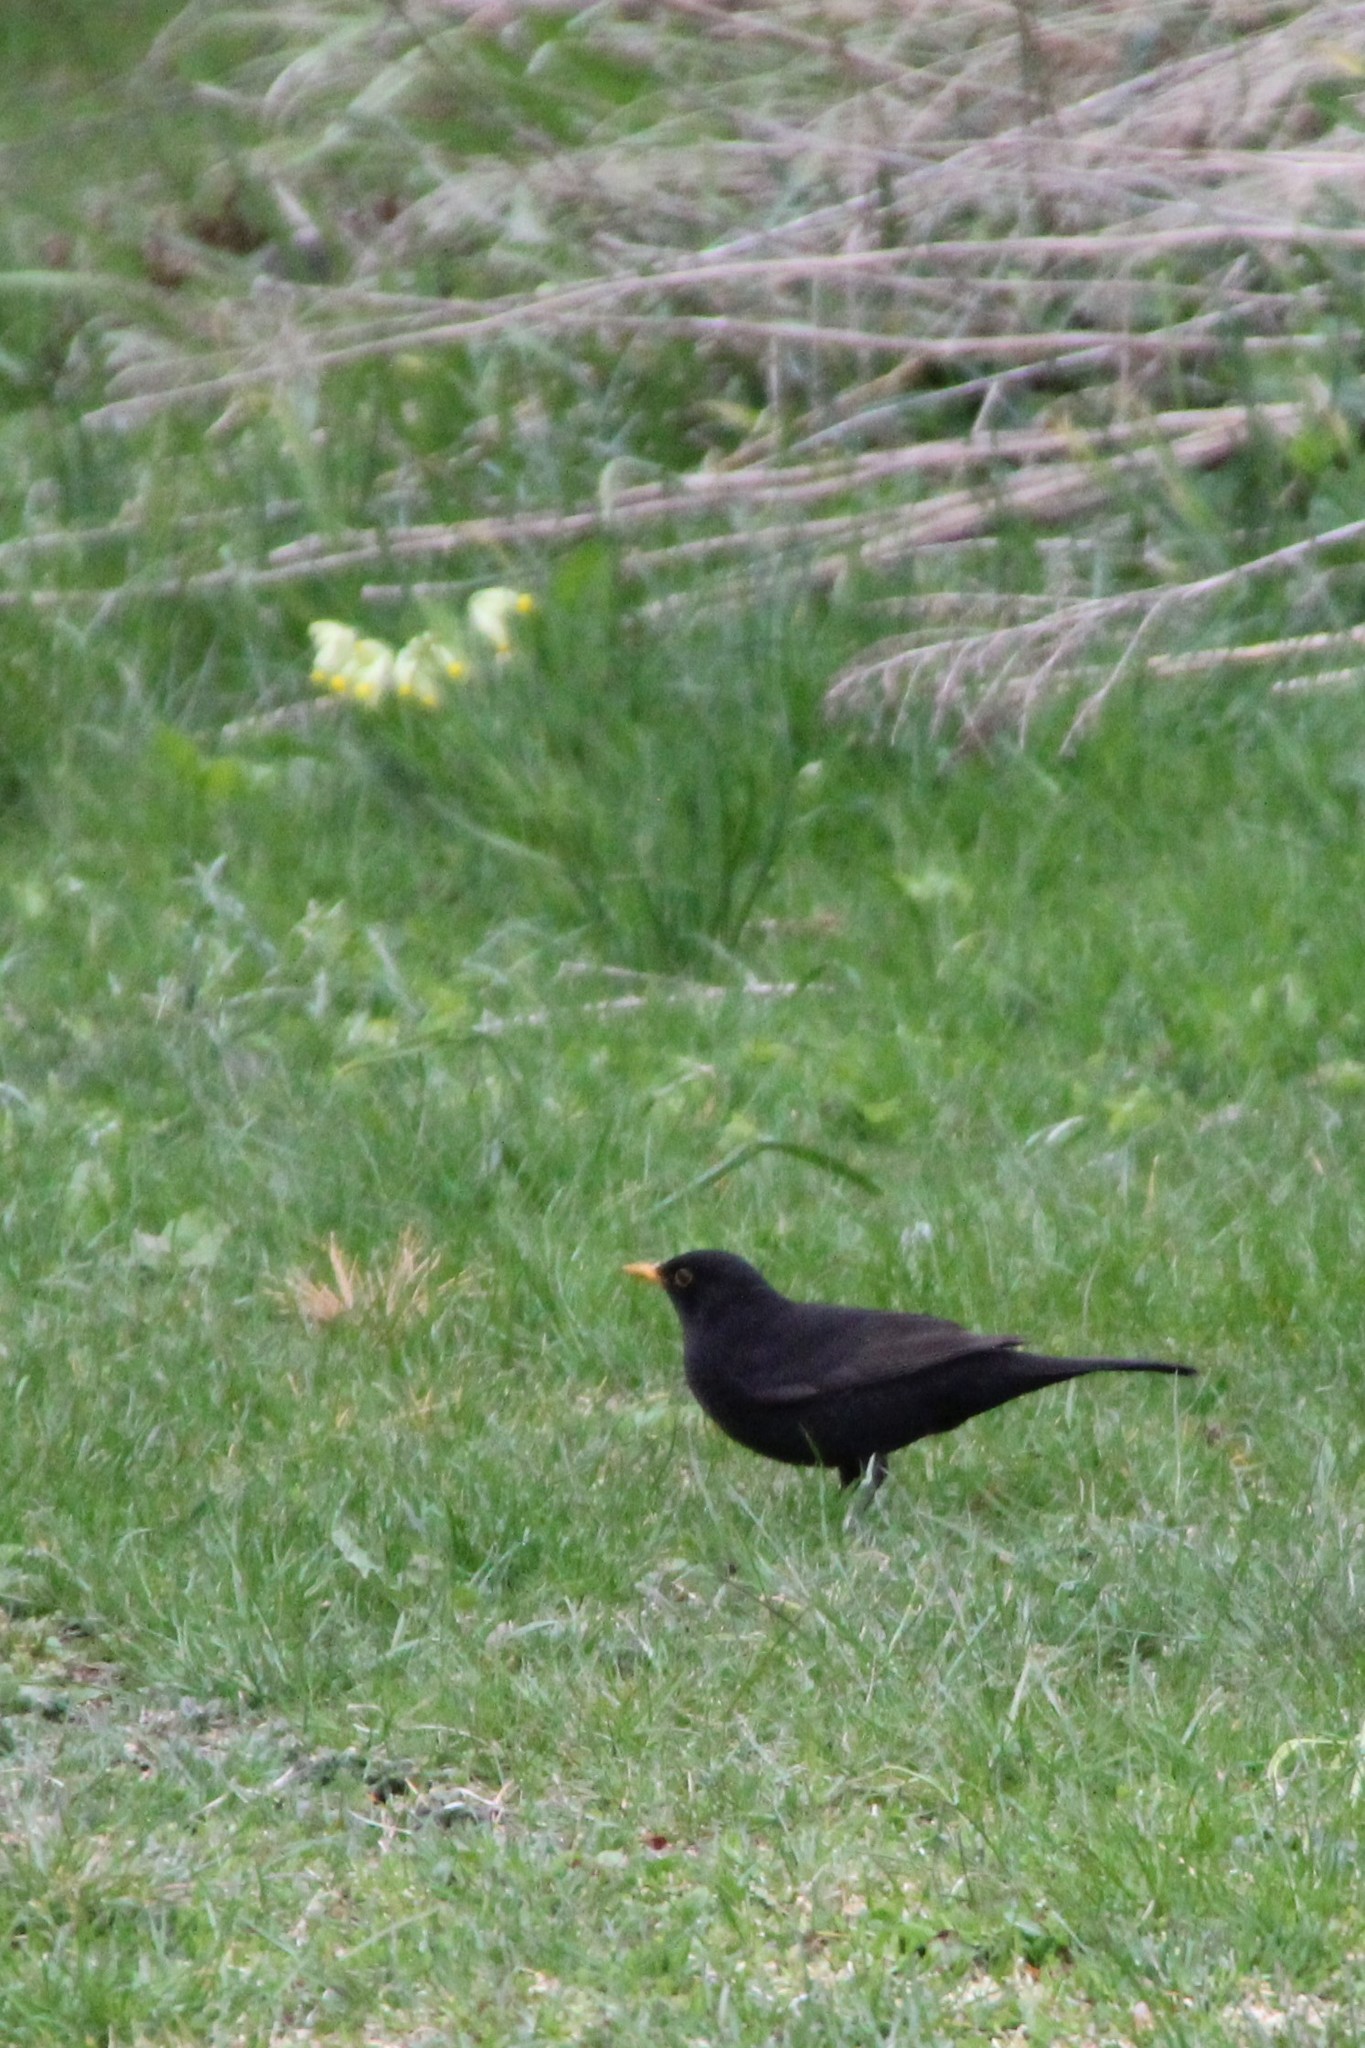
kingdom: Animalia
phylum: Chordata
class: Aves
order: Passeriformes
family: Turdidae
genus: Turdus
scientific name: Turdus merula
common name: Common blackbird
